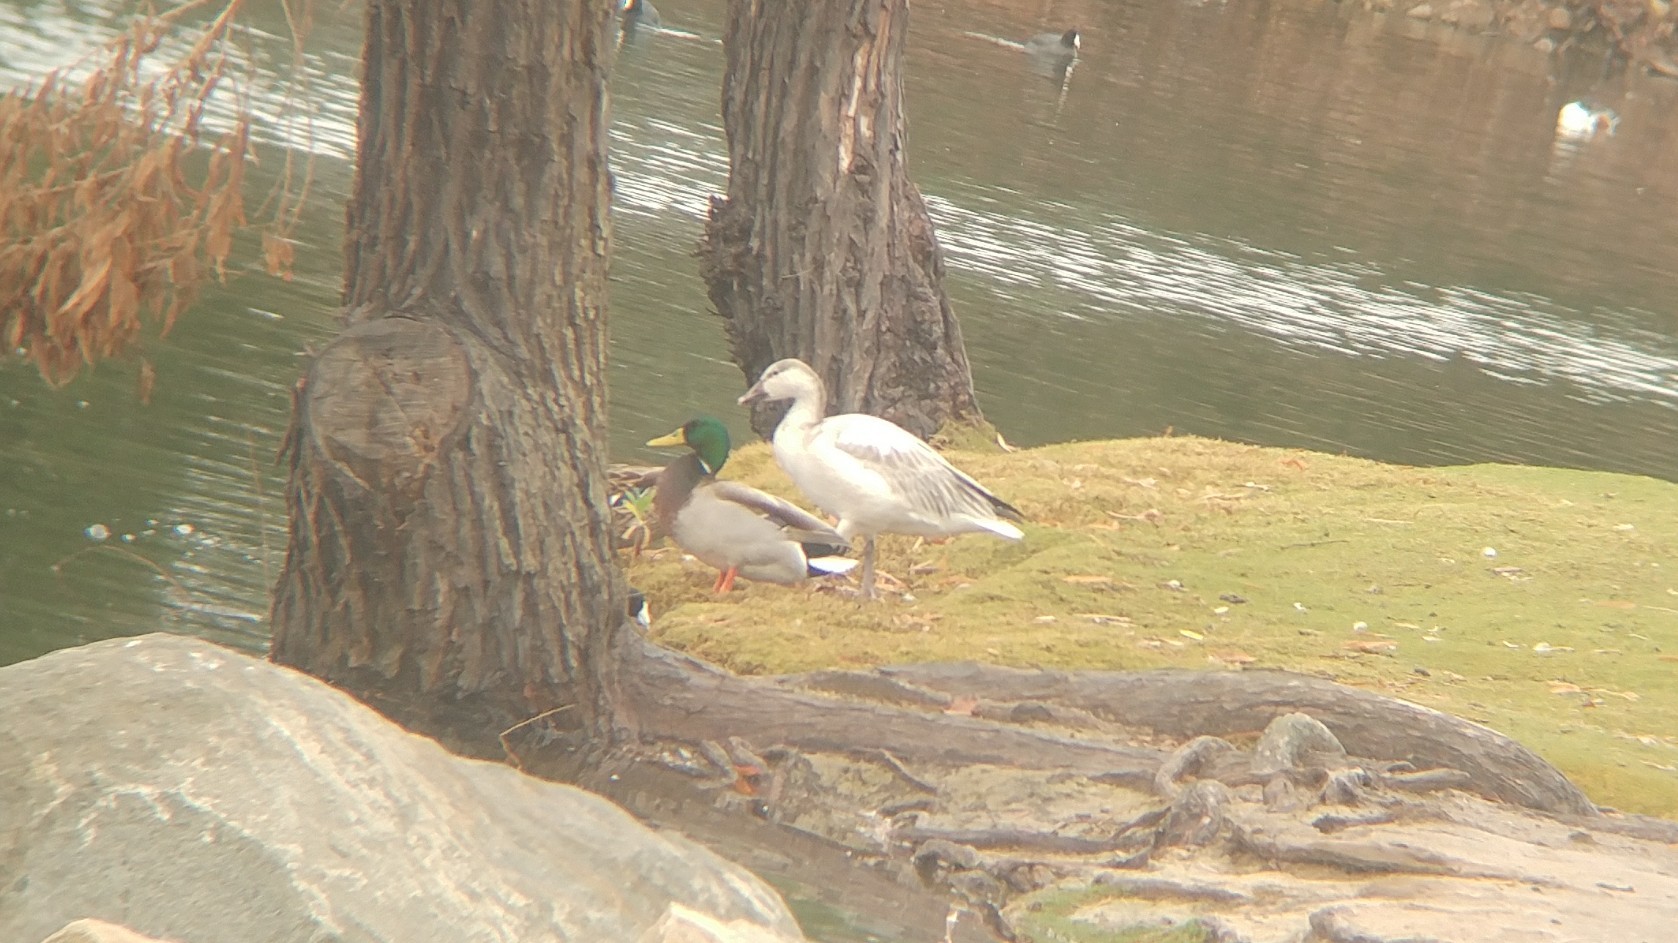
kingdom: Animalia
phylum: Chordata
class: Aves
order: Anseriformes
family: Anatidae
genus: Anser
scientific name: Anser caerulescens
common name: Snow goose
